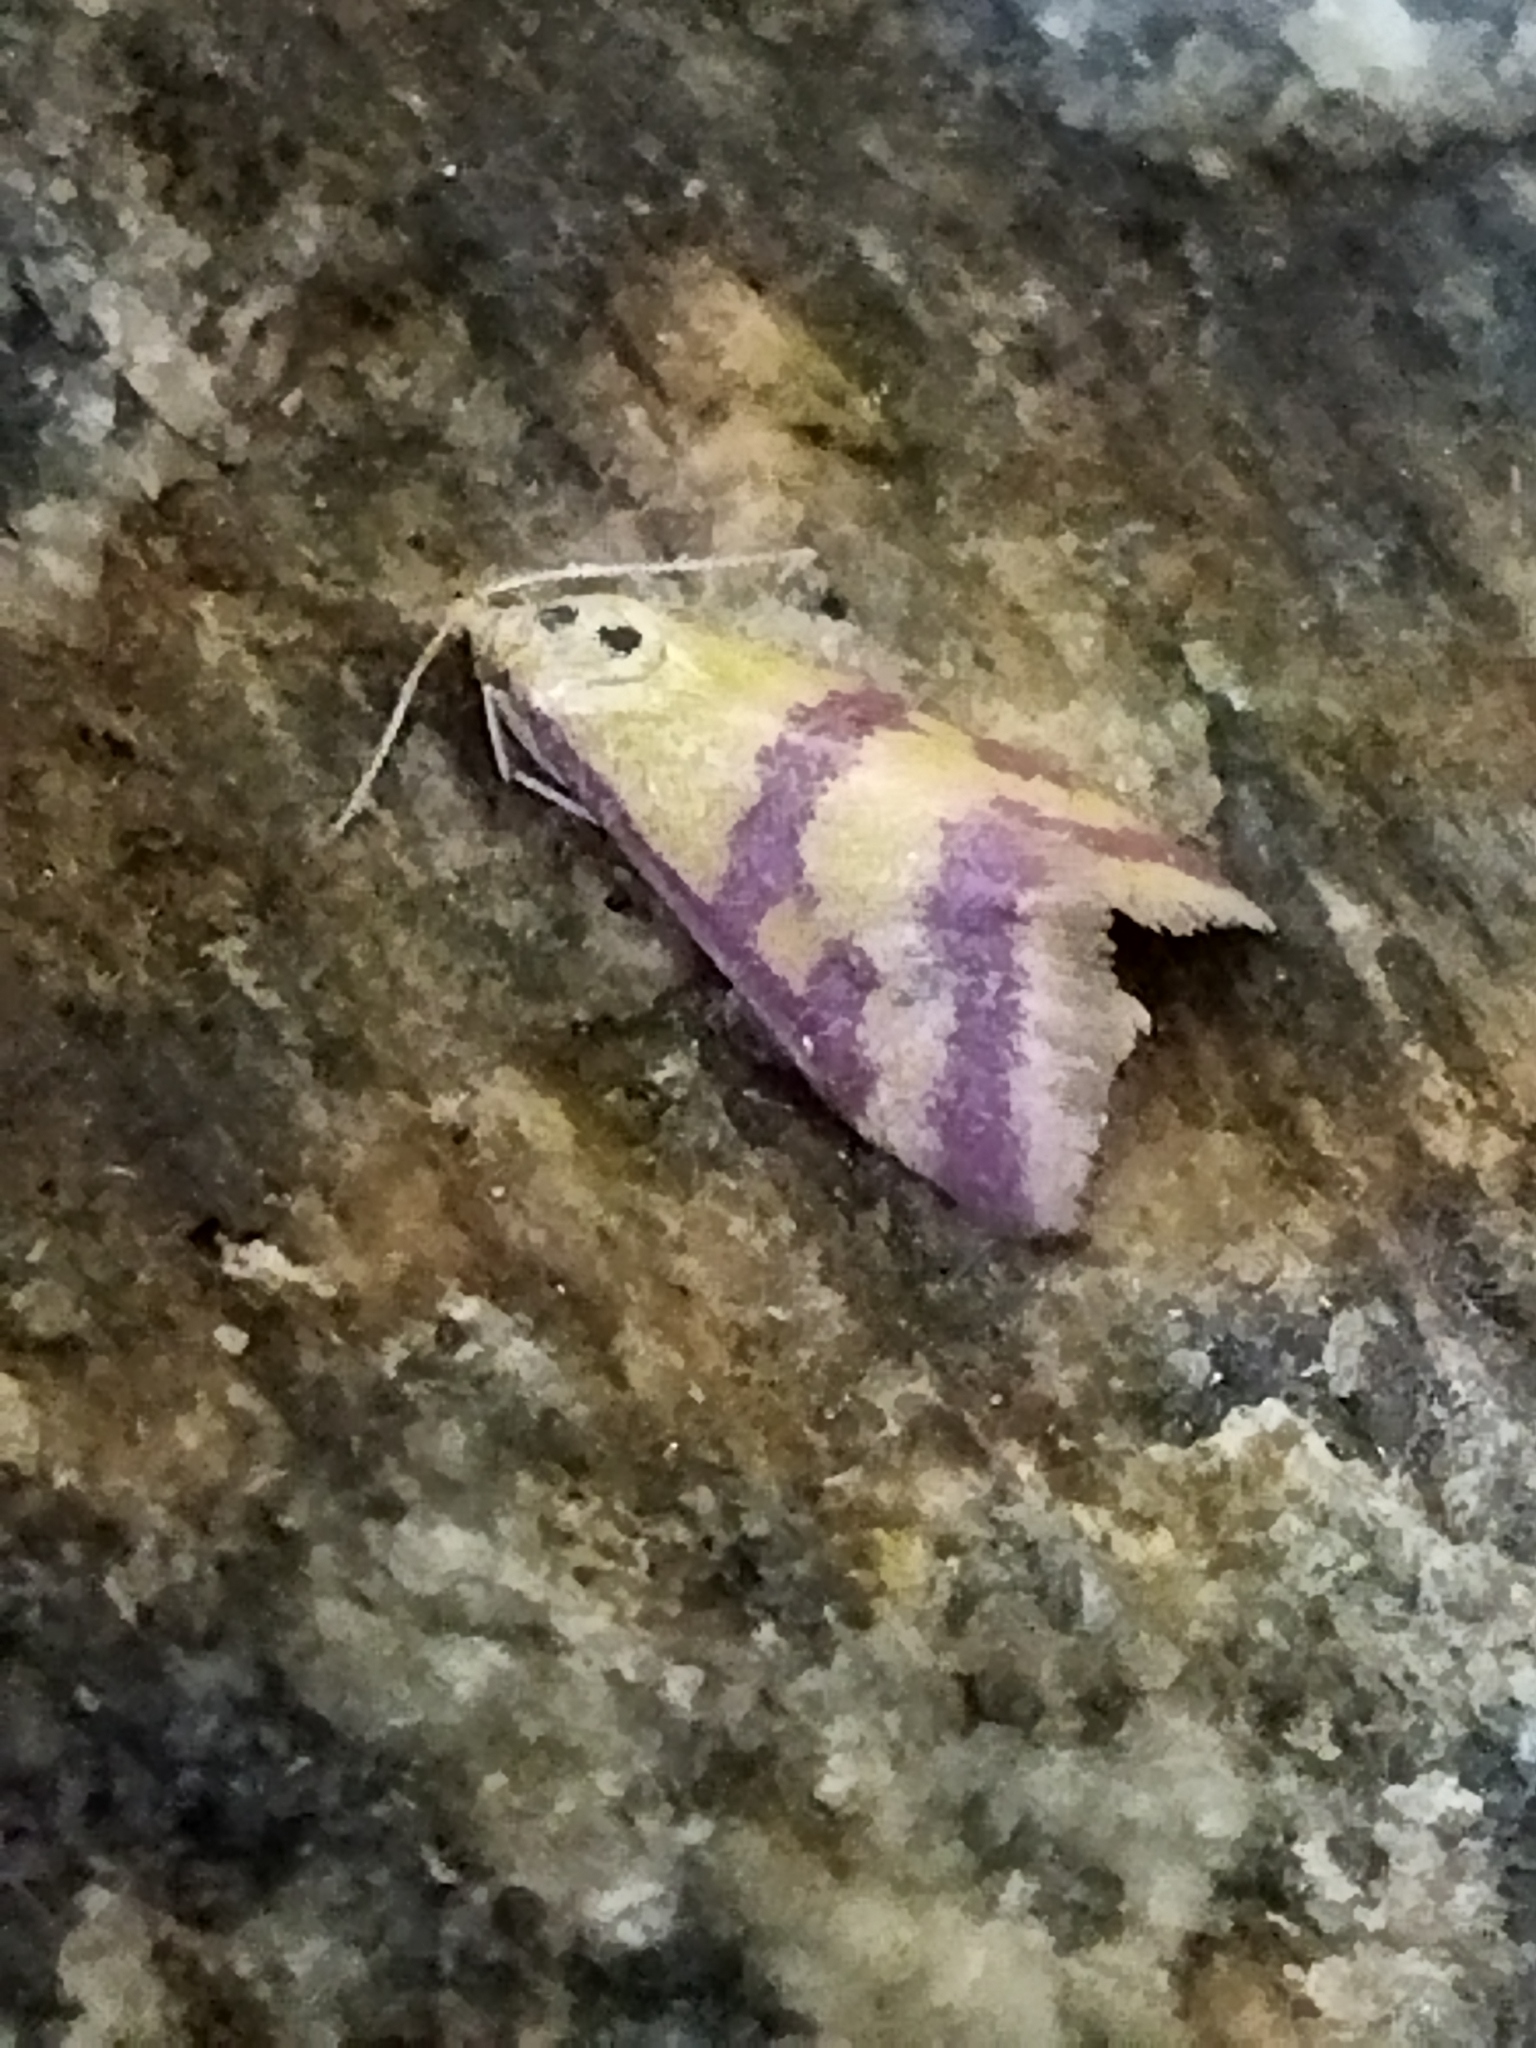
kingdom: Animalia
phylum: Arthropoda
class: Insecta
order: Lepidoptera
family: Crambidae
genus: Pyrausta
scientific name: Pyrausta sanguinalis
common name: Scarce crimson and gold
